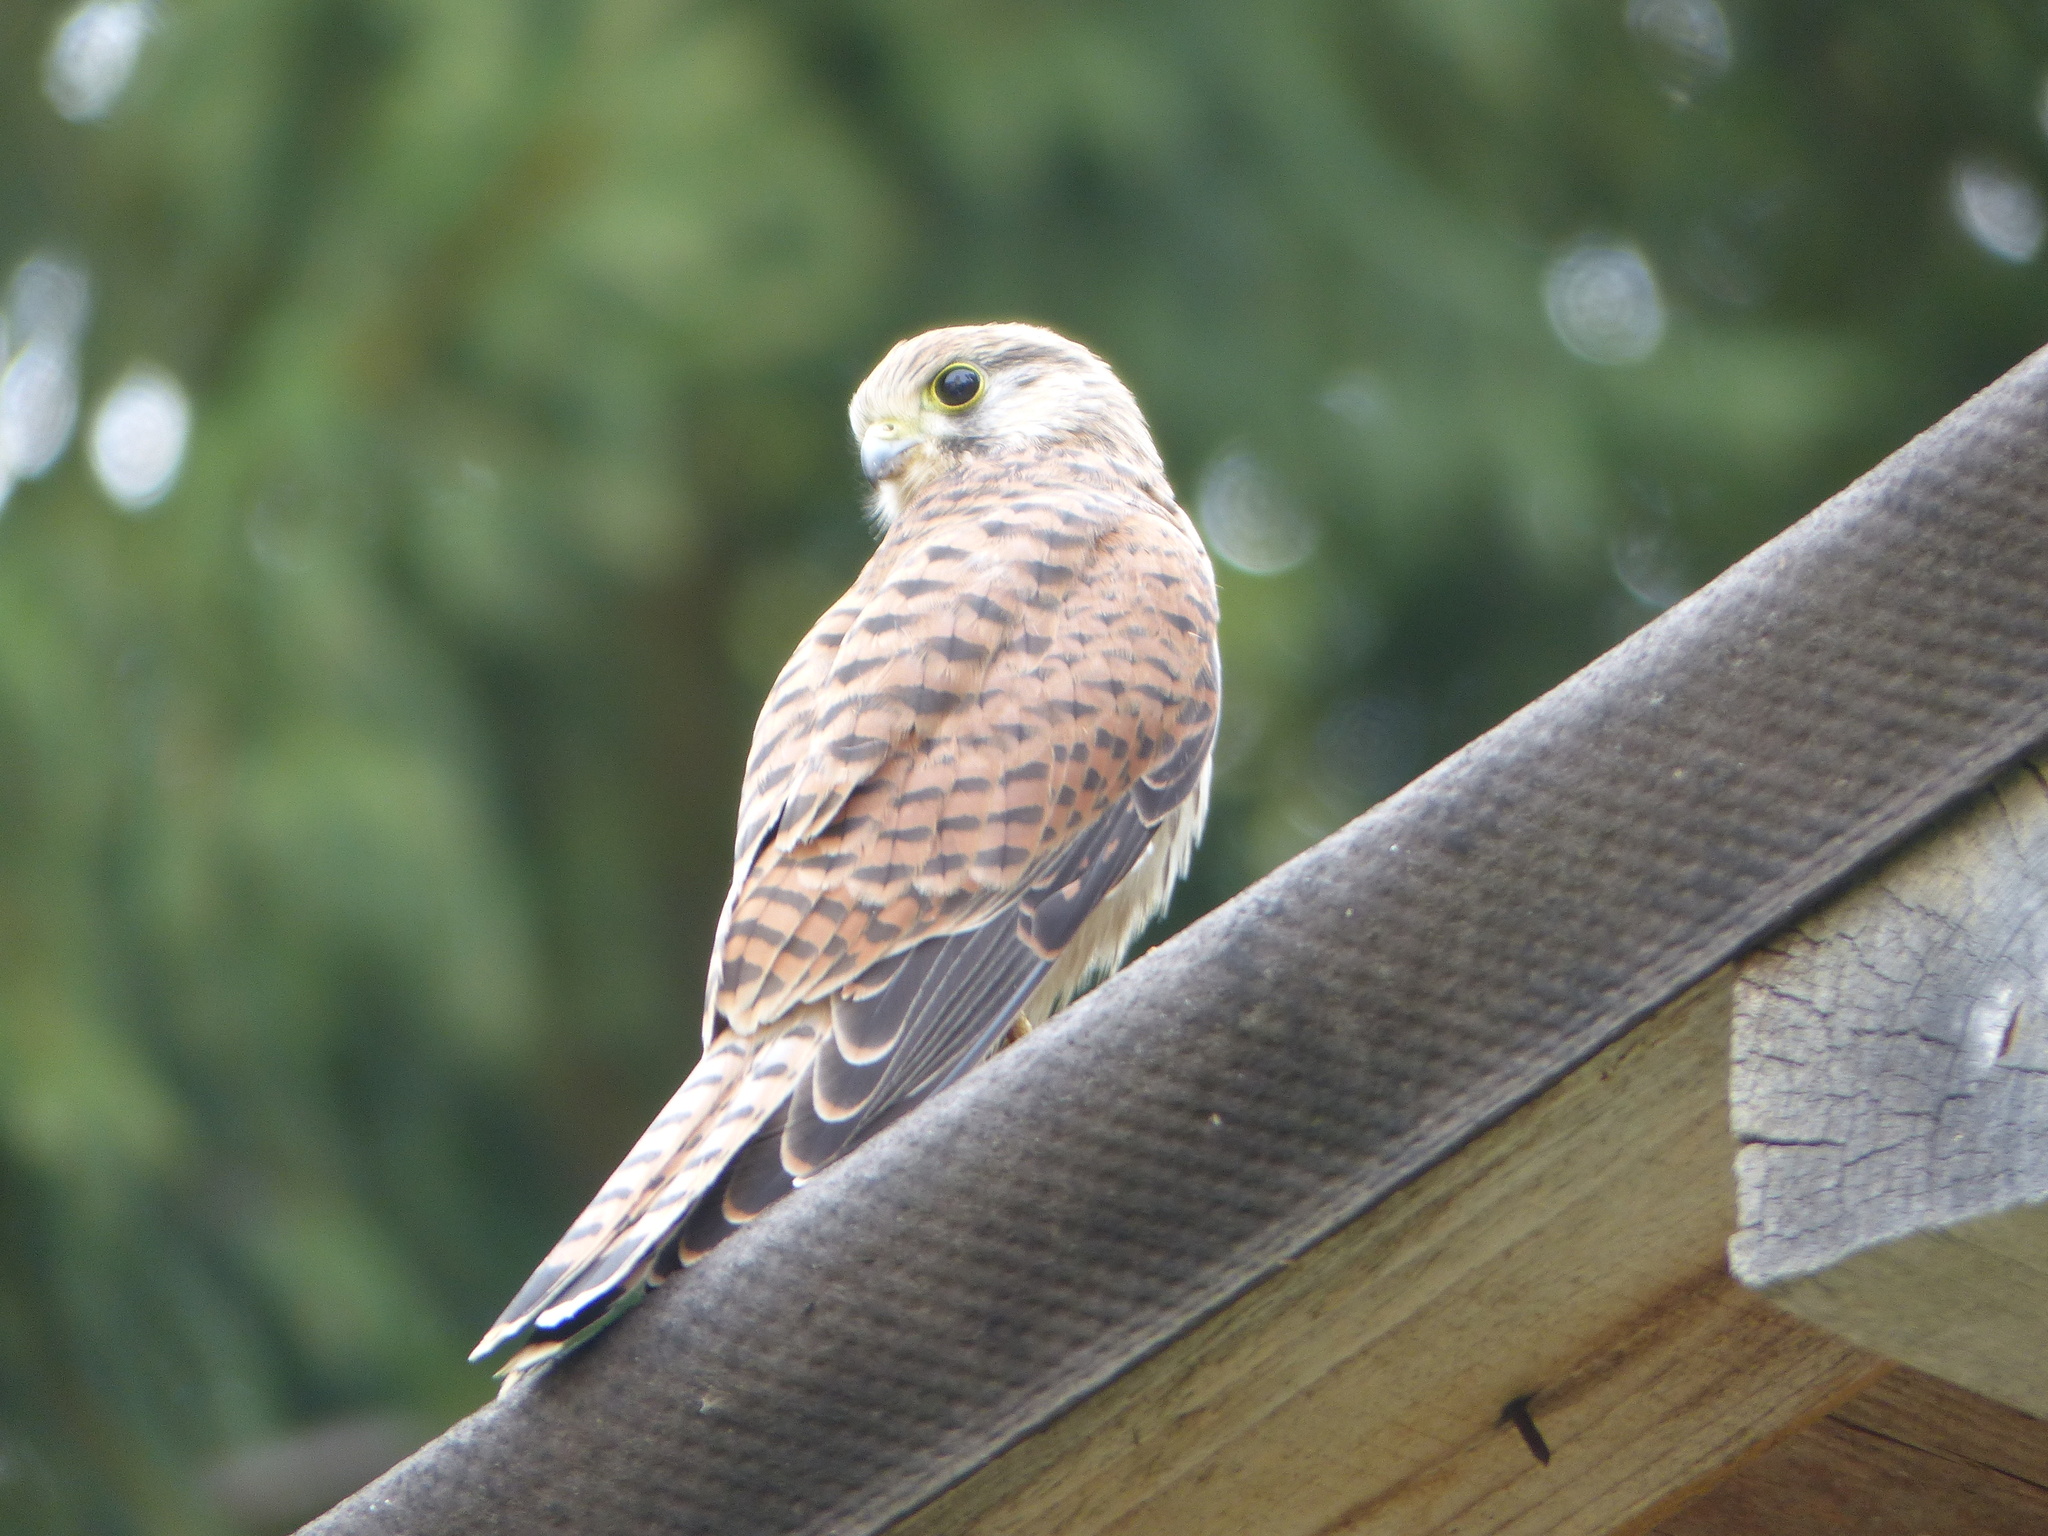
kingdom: Animalia
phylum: Chordata
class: Aves
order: Falconiformes
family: Falconidae
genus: Falco
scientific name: Falco tinnunculus
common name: Common kestrel
